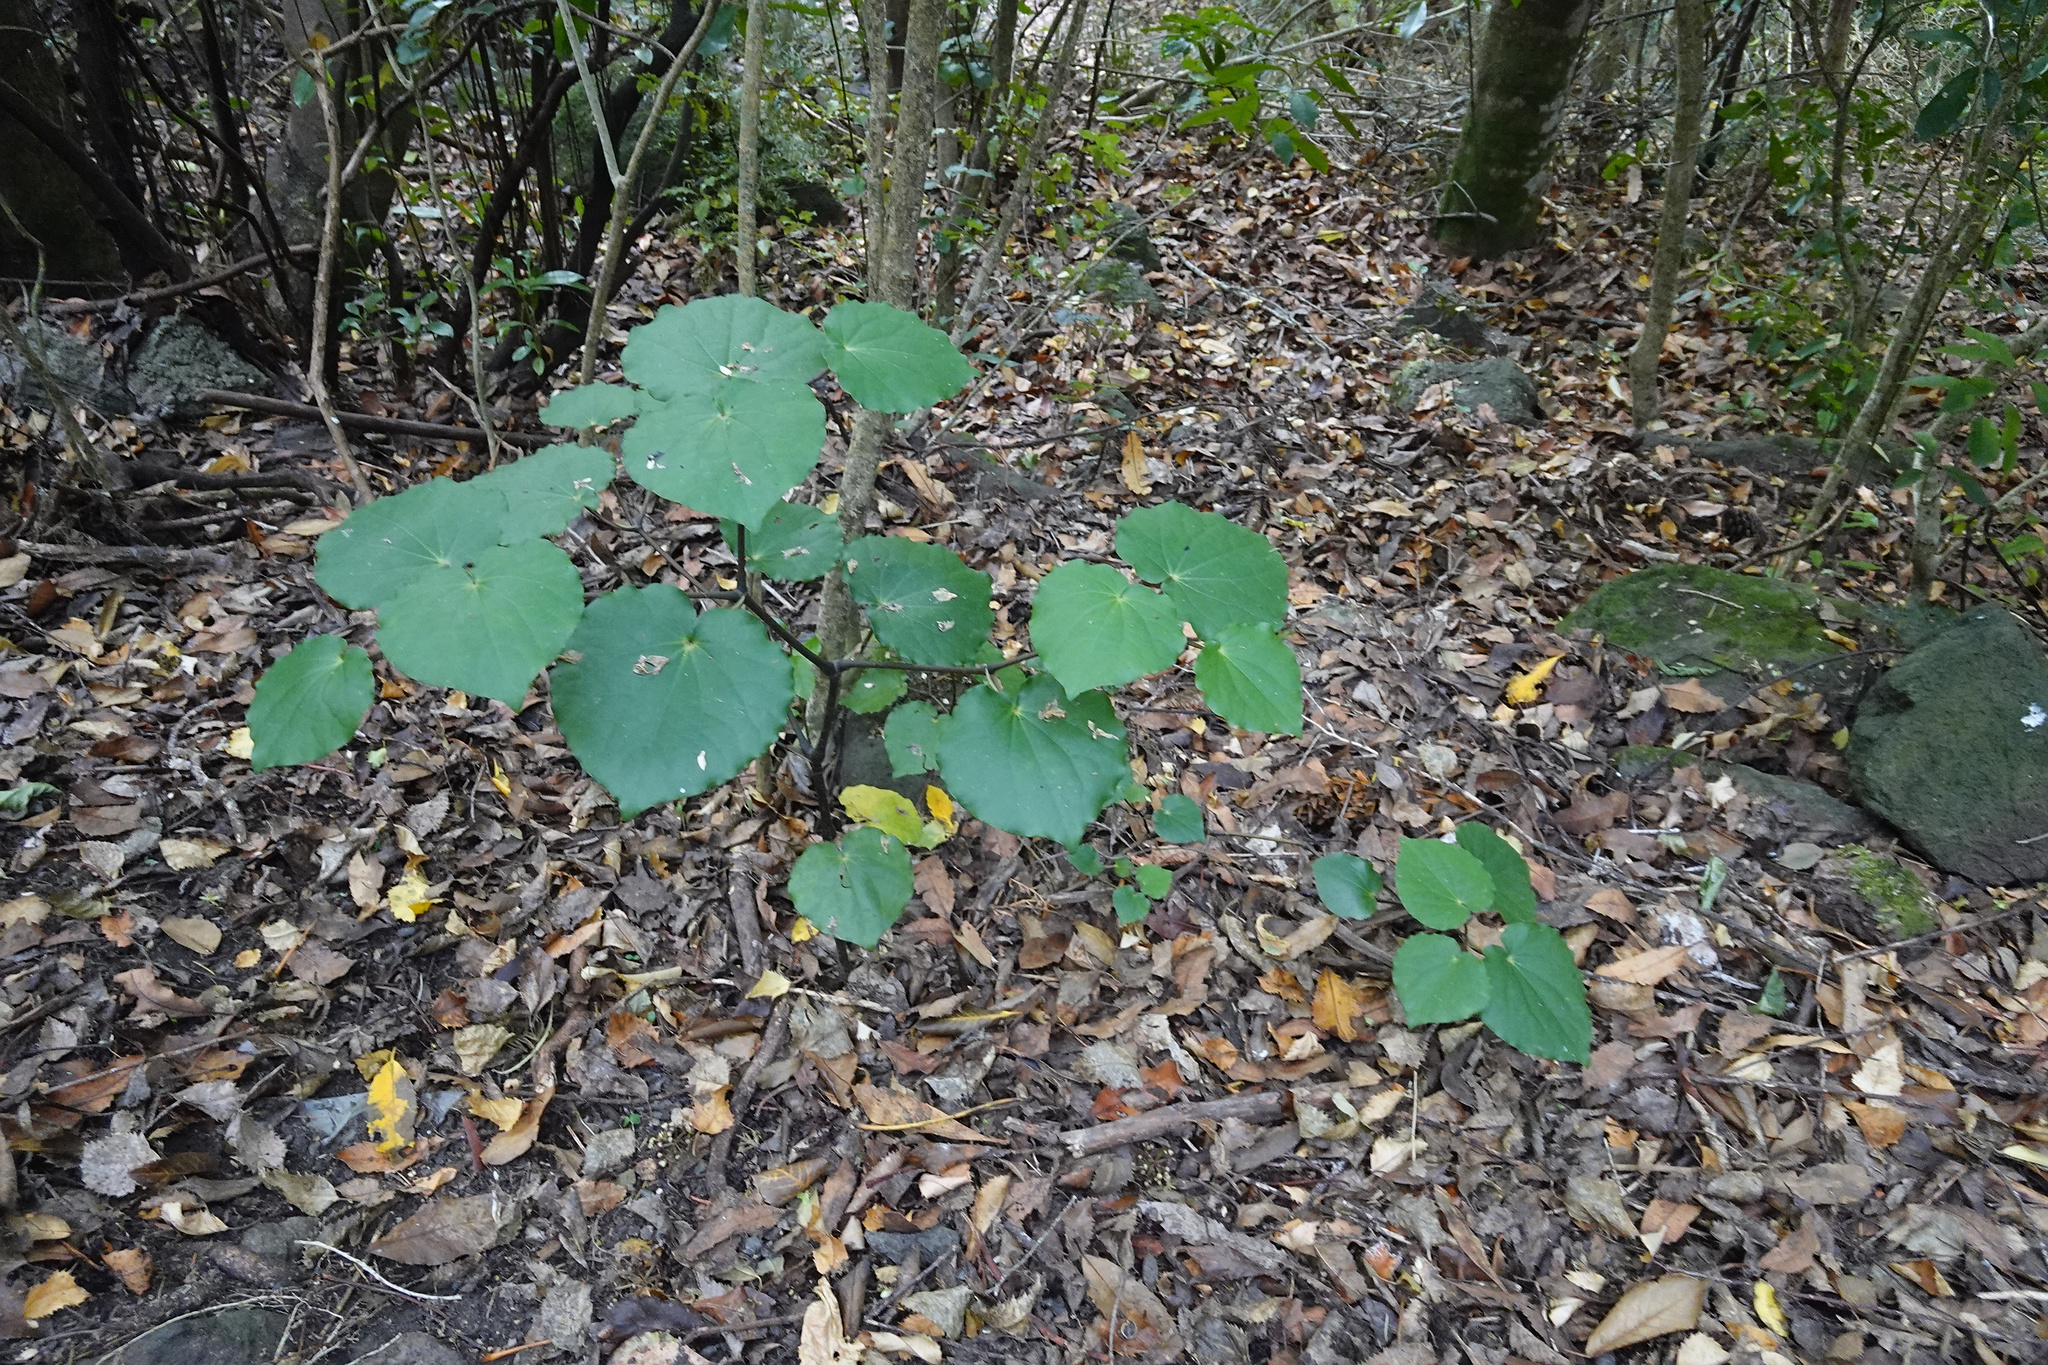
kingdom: Plantae
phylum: Tracheophyta
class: Magnoliopsida
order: Piperales
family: Piperaceae
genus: Macropiper
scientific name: Macropiper excelsum
